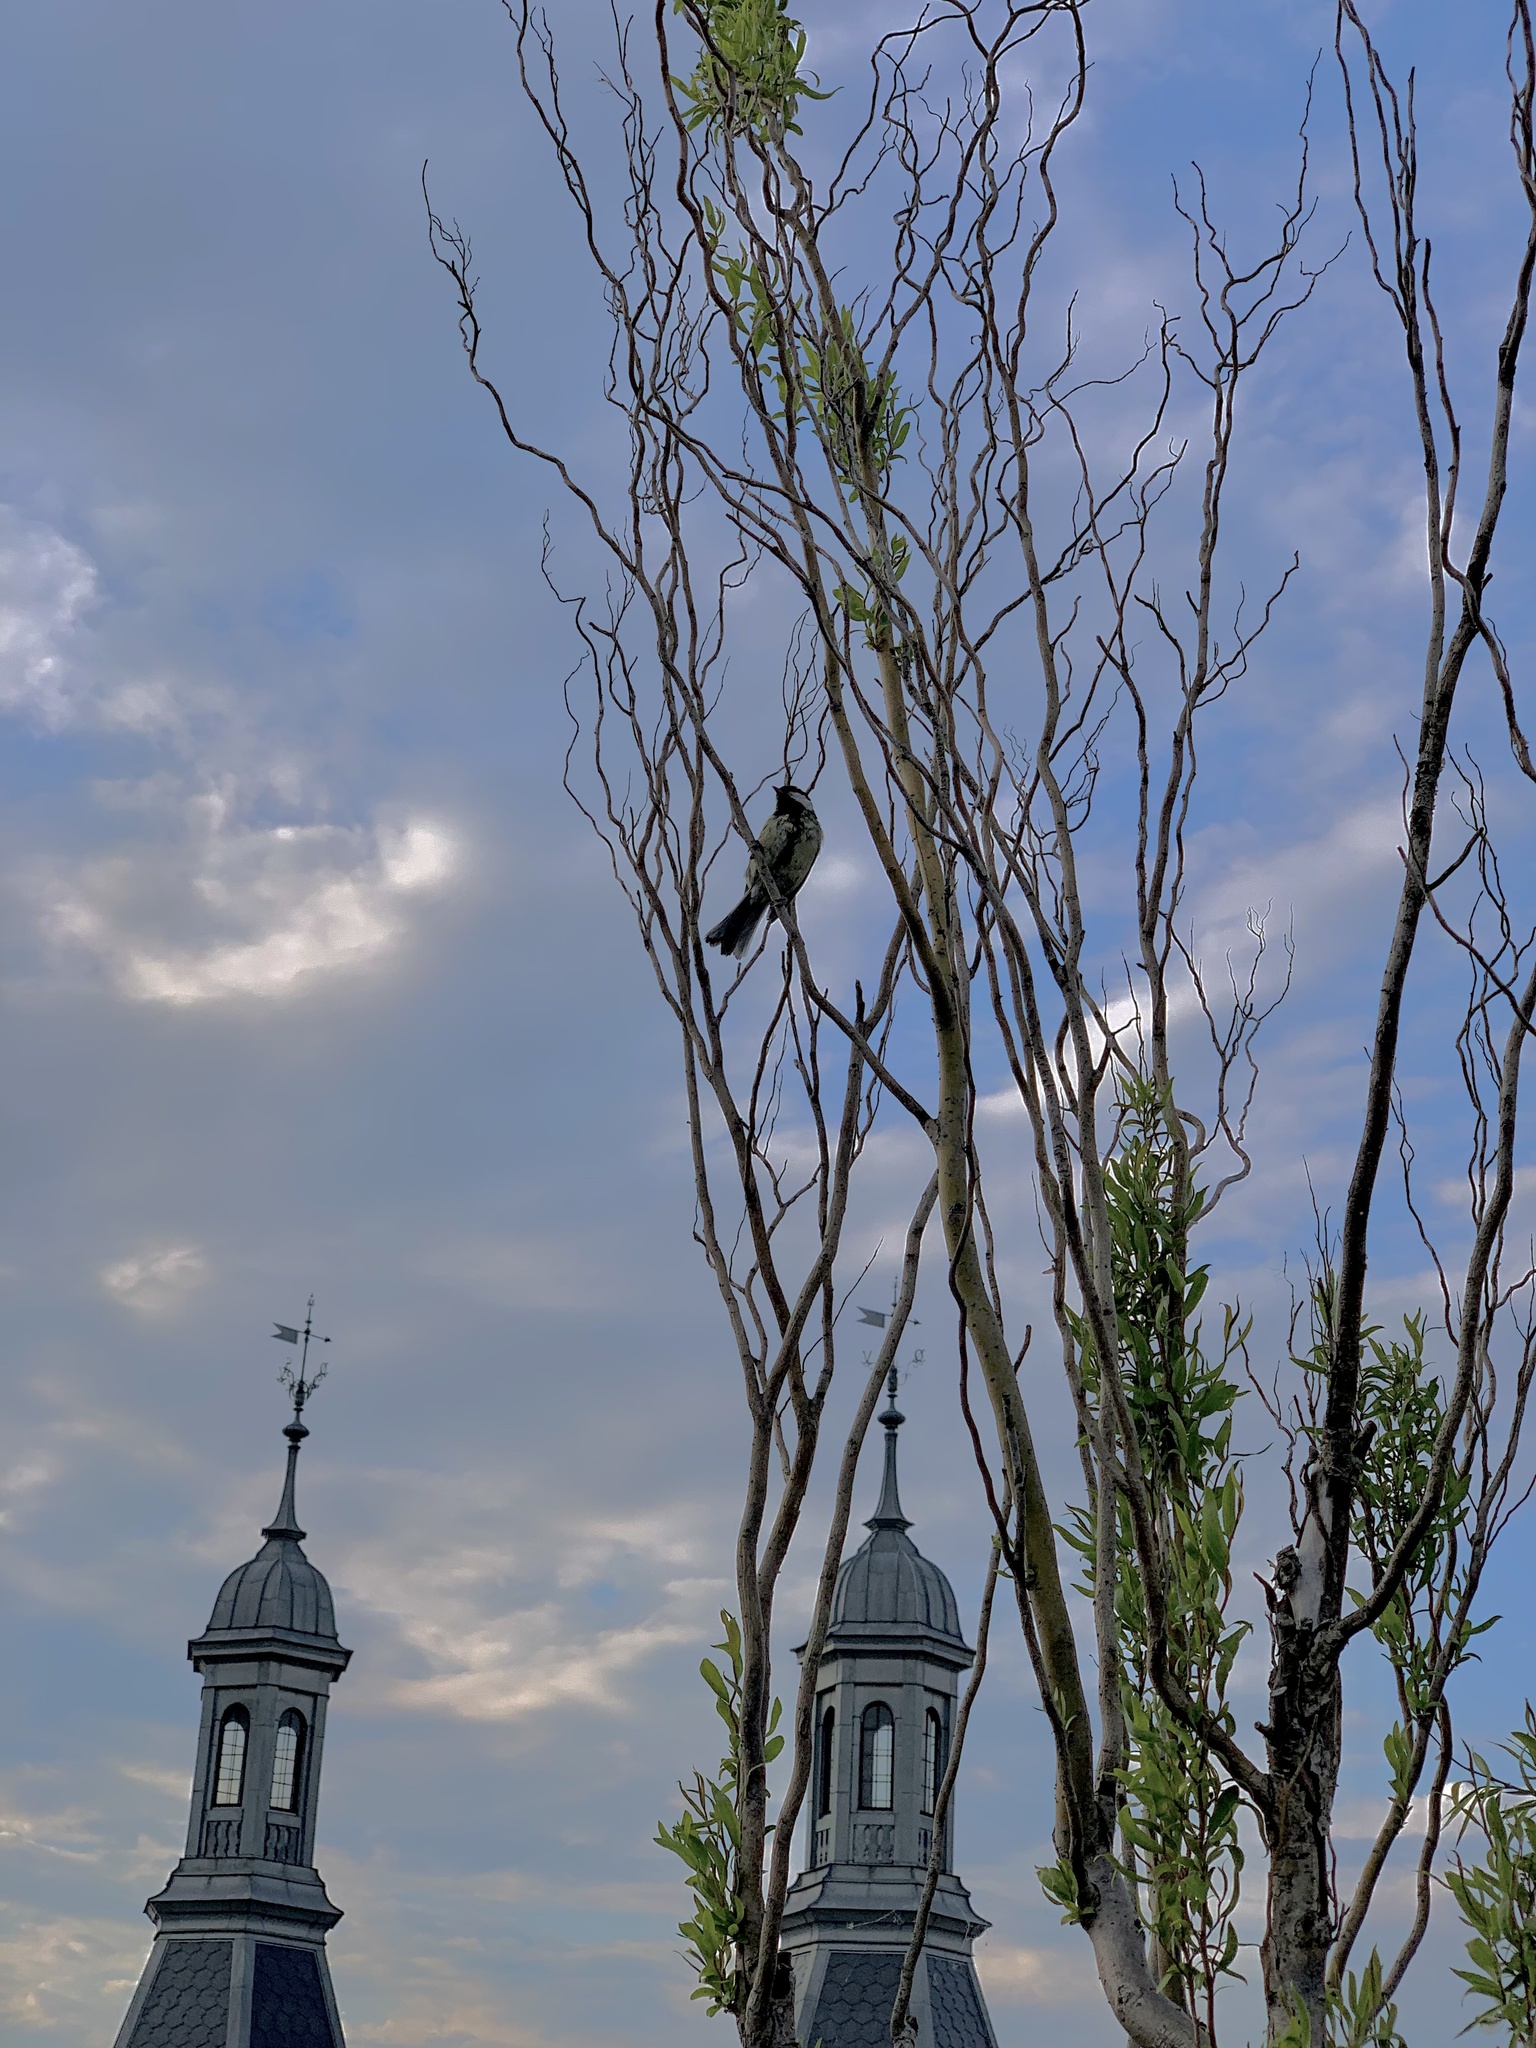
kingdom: Animalia
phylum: Chordata
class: Aves
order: Passeriformes
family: Paridae
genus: Parus
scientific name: Parus major
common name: Great tit
